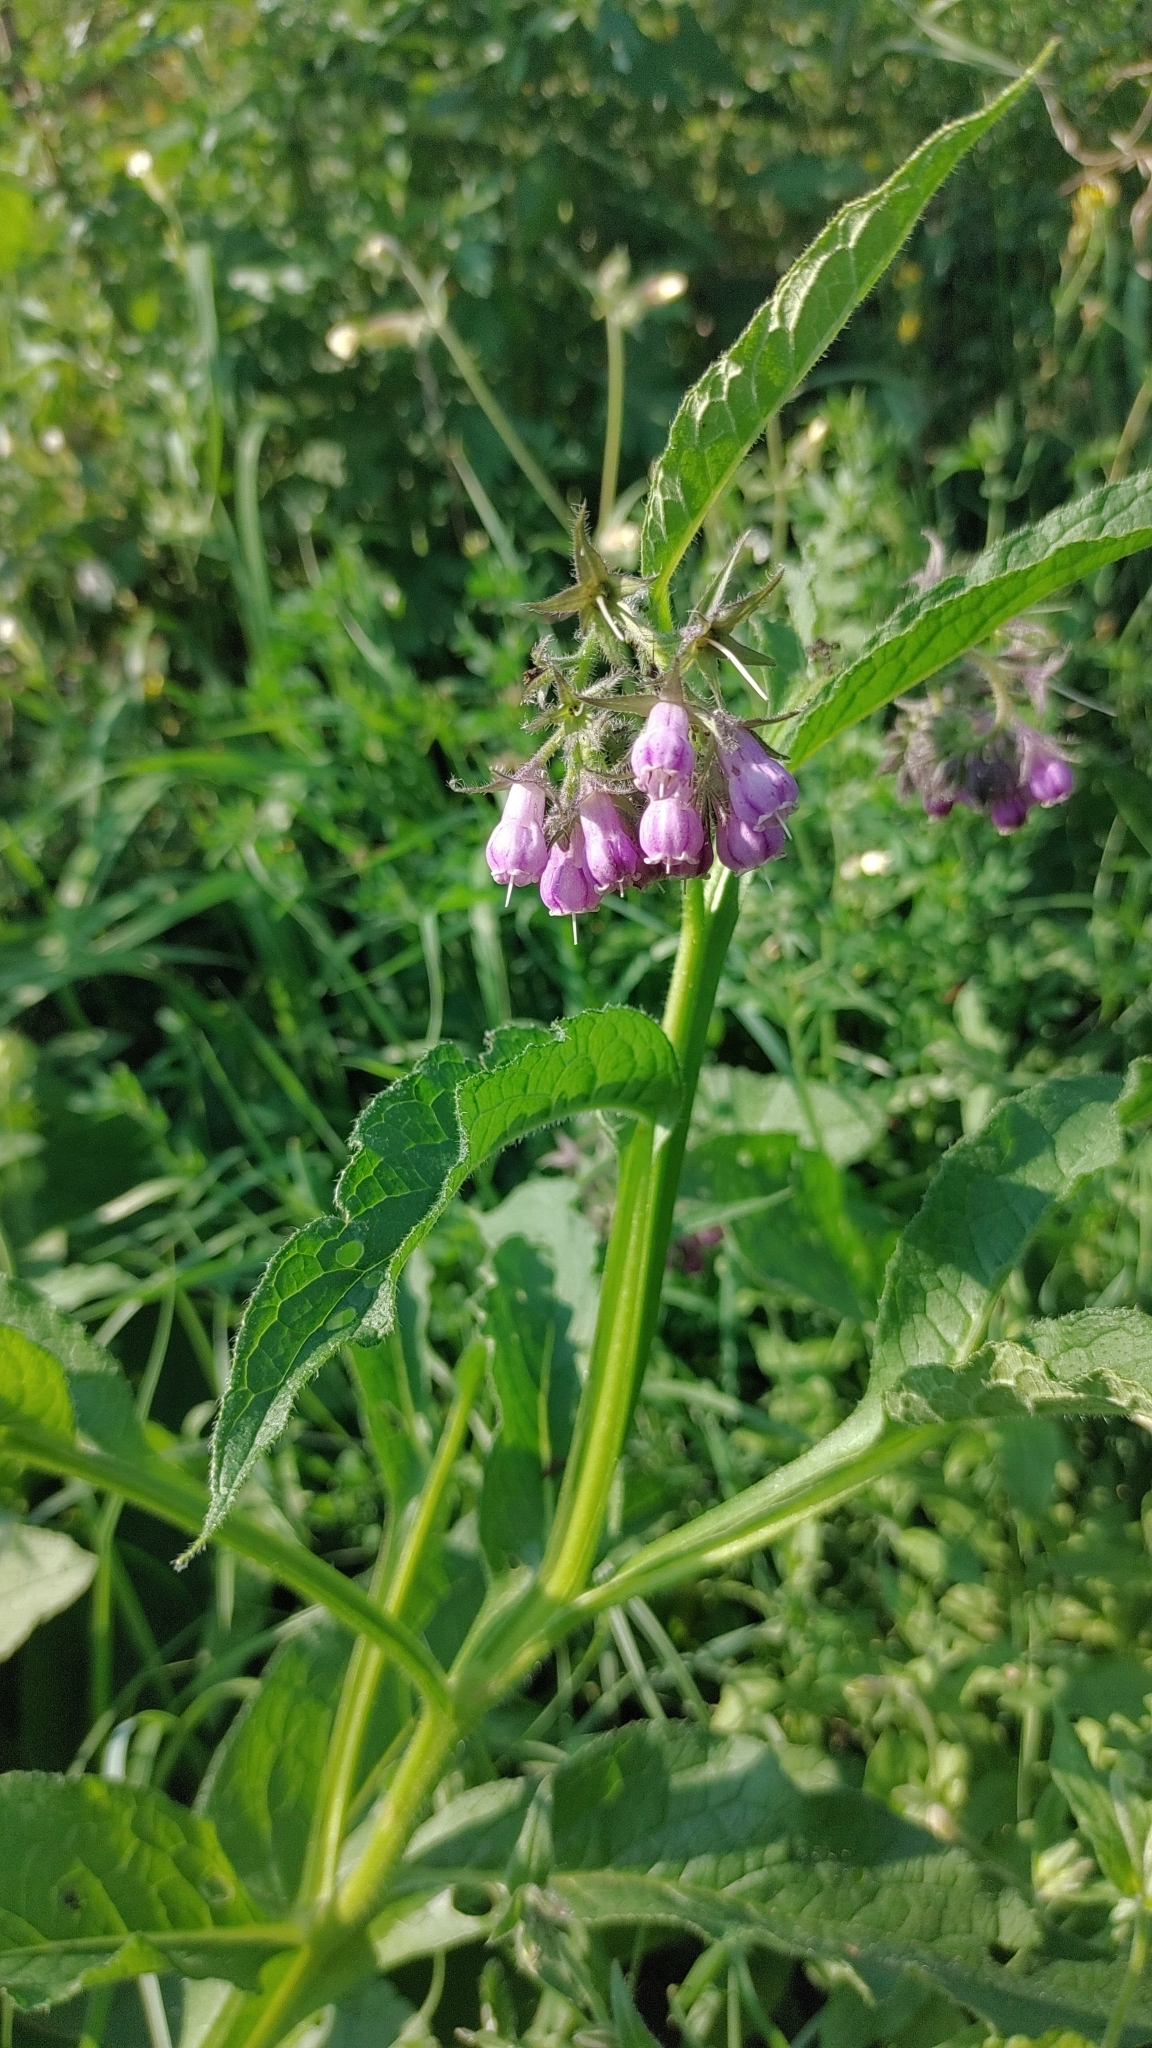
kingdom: Plantae
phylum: Tracheophyta
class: Magnoliopsida
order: Boraginales
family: Boraginaceae
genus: Symphytum
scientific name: Symphytum officinale
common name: Common comfrey
